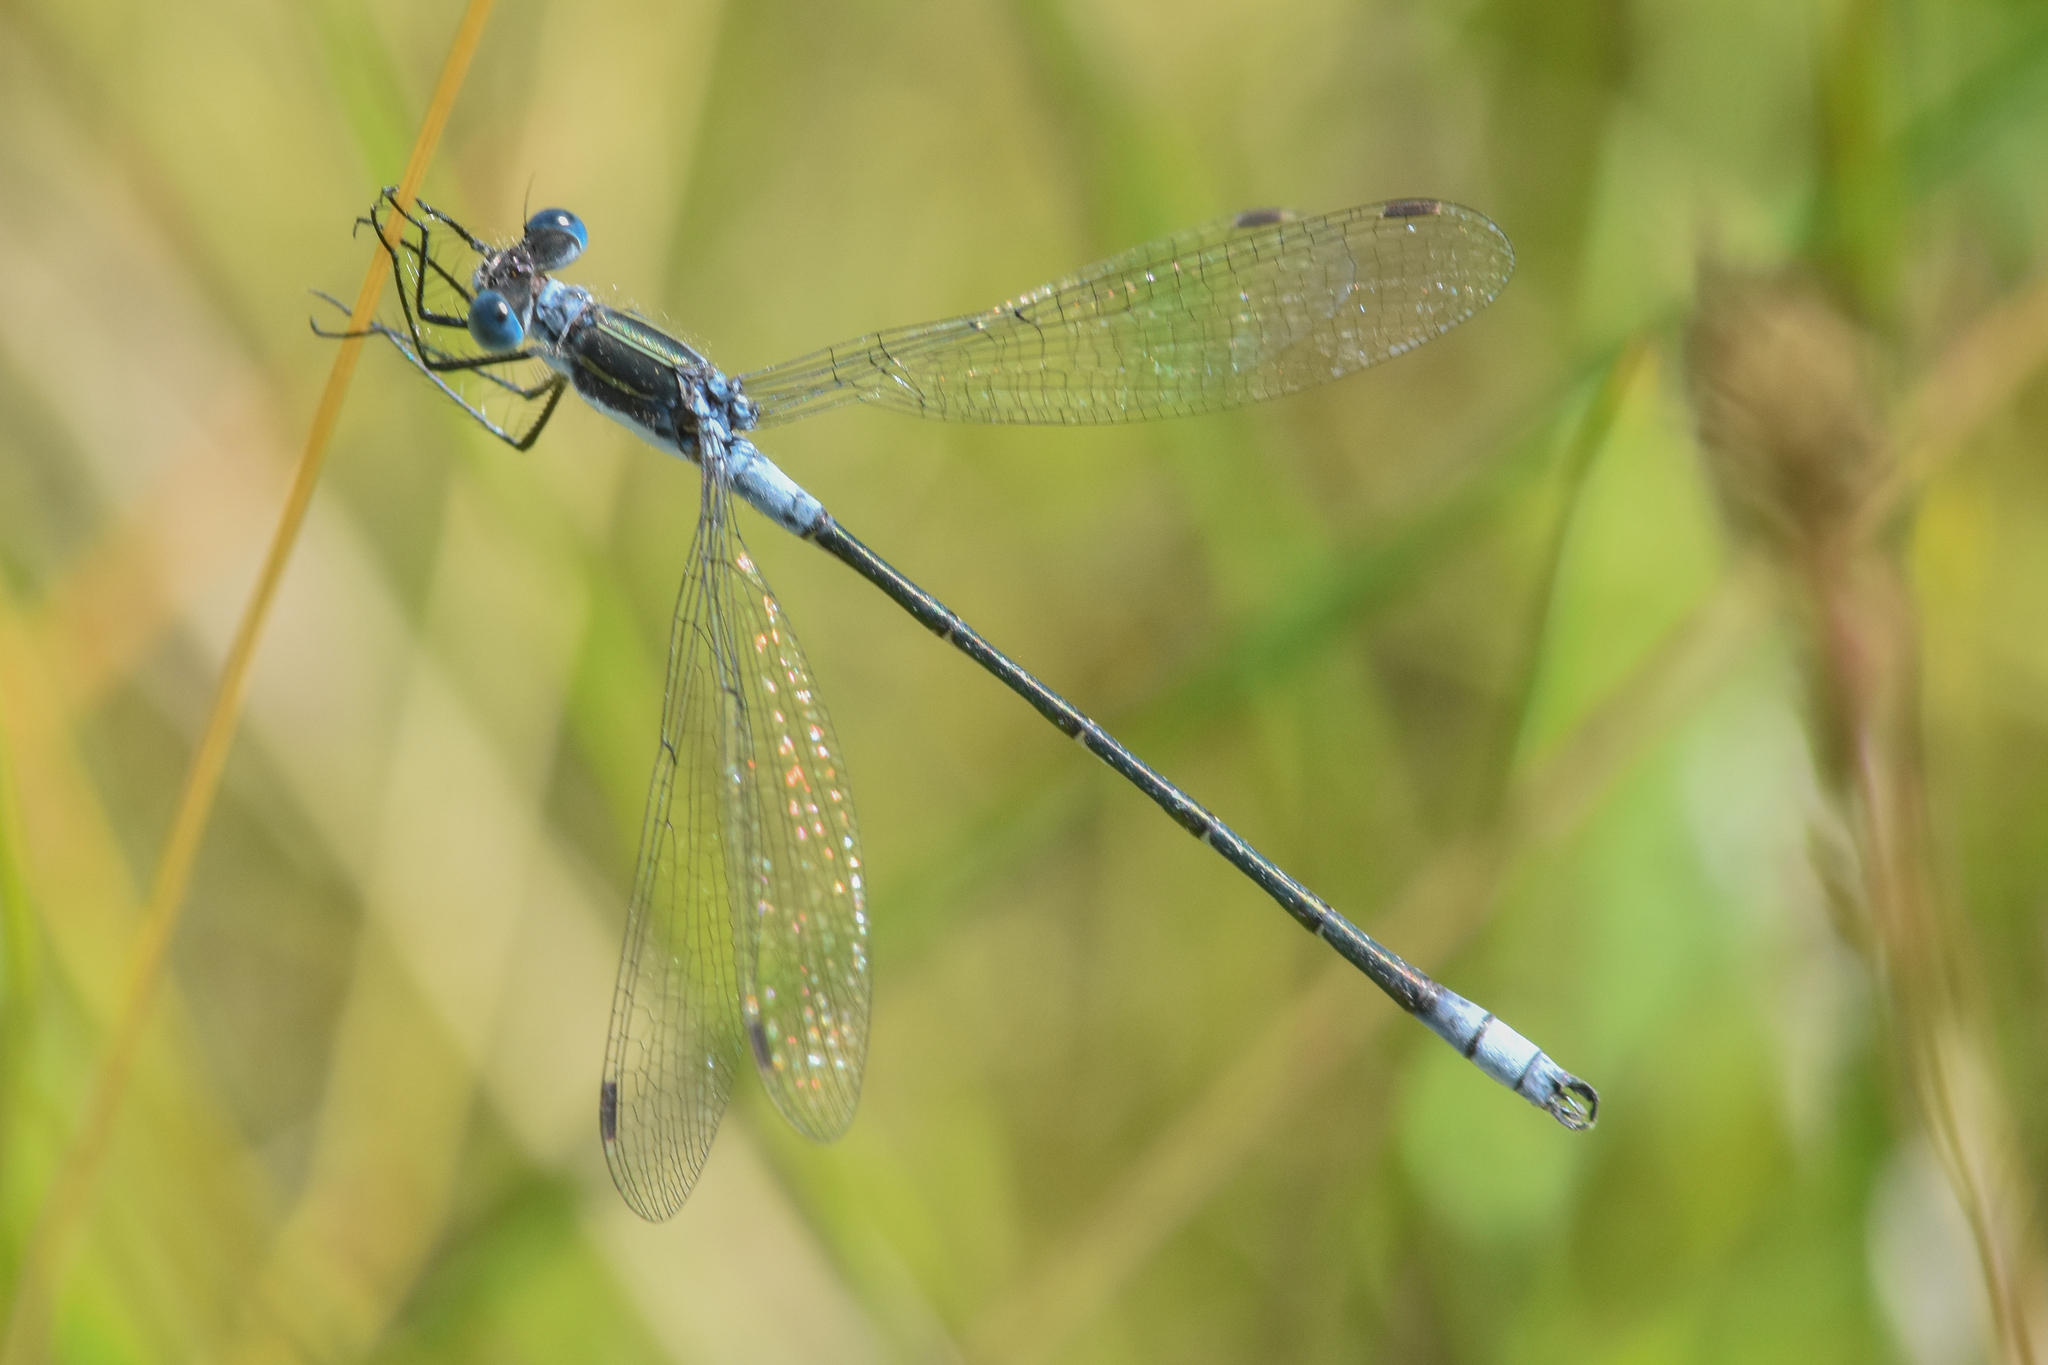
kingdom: Animalia
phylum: Arthropoda
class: Insecta
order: Odonata
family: Lestidae
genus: Lestes
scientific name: Lestes disjunctus
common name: Northern spreadwing
